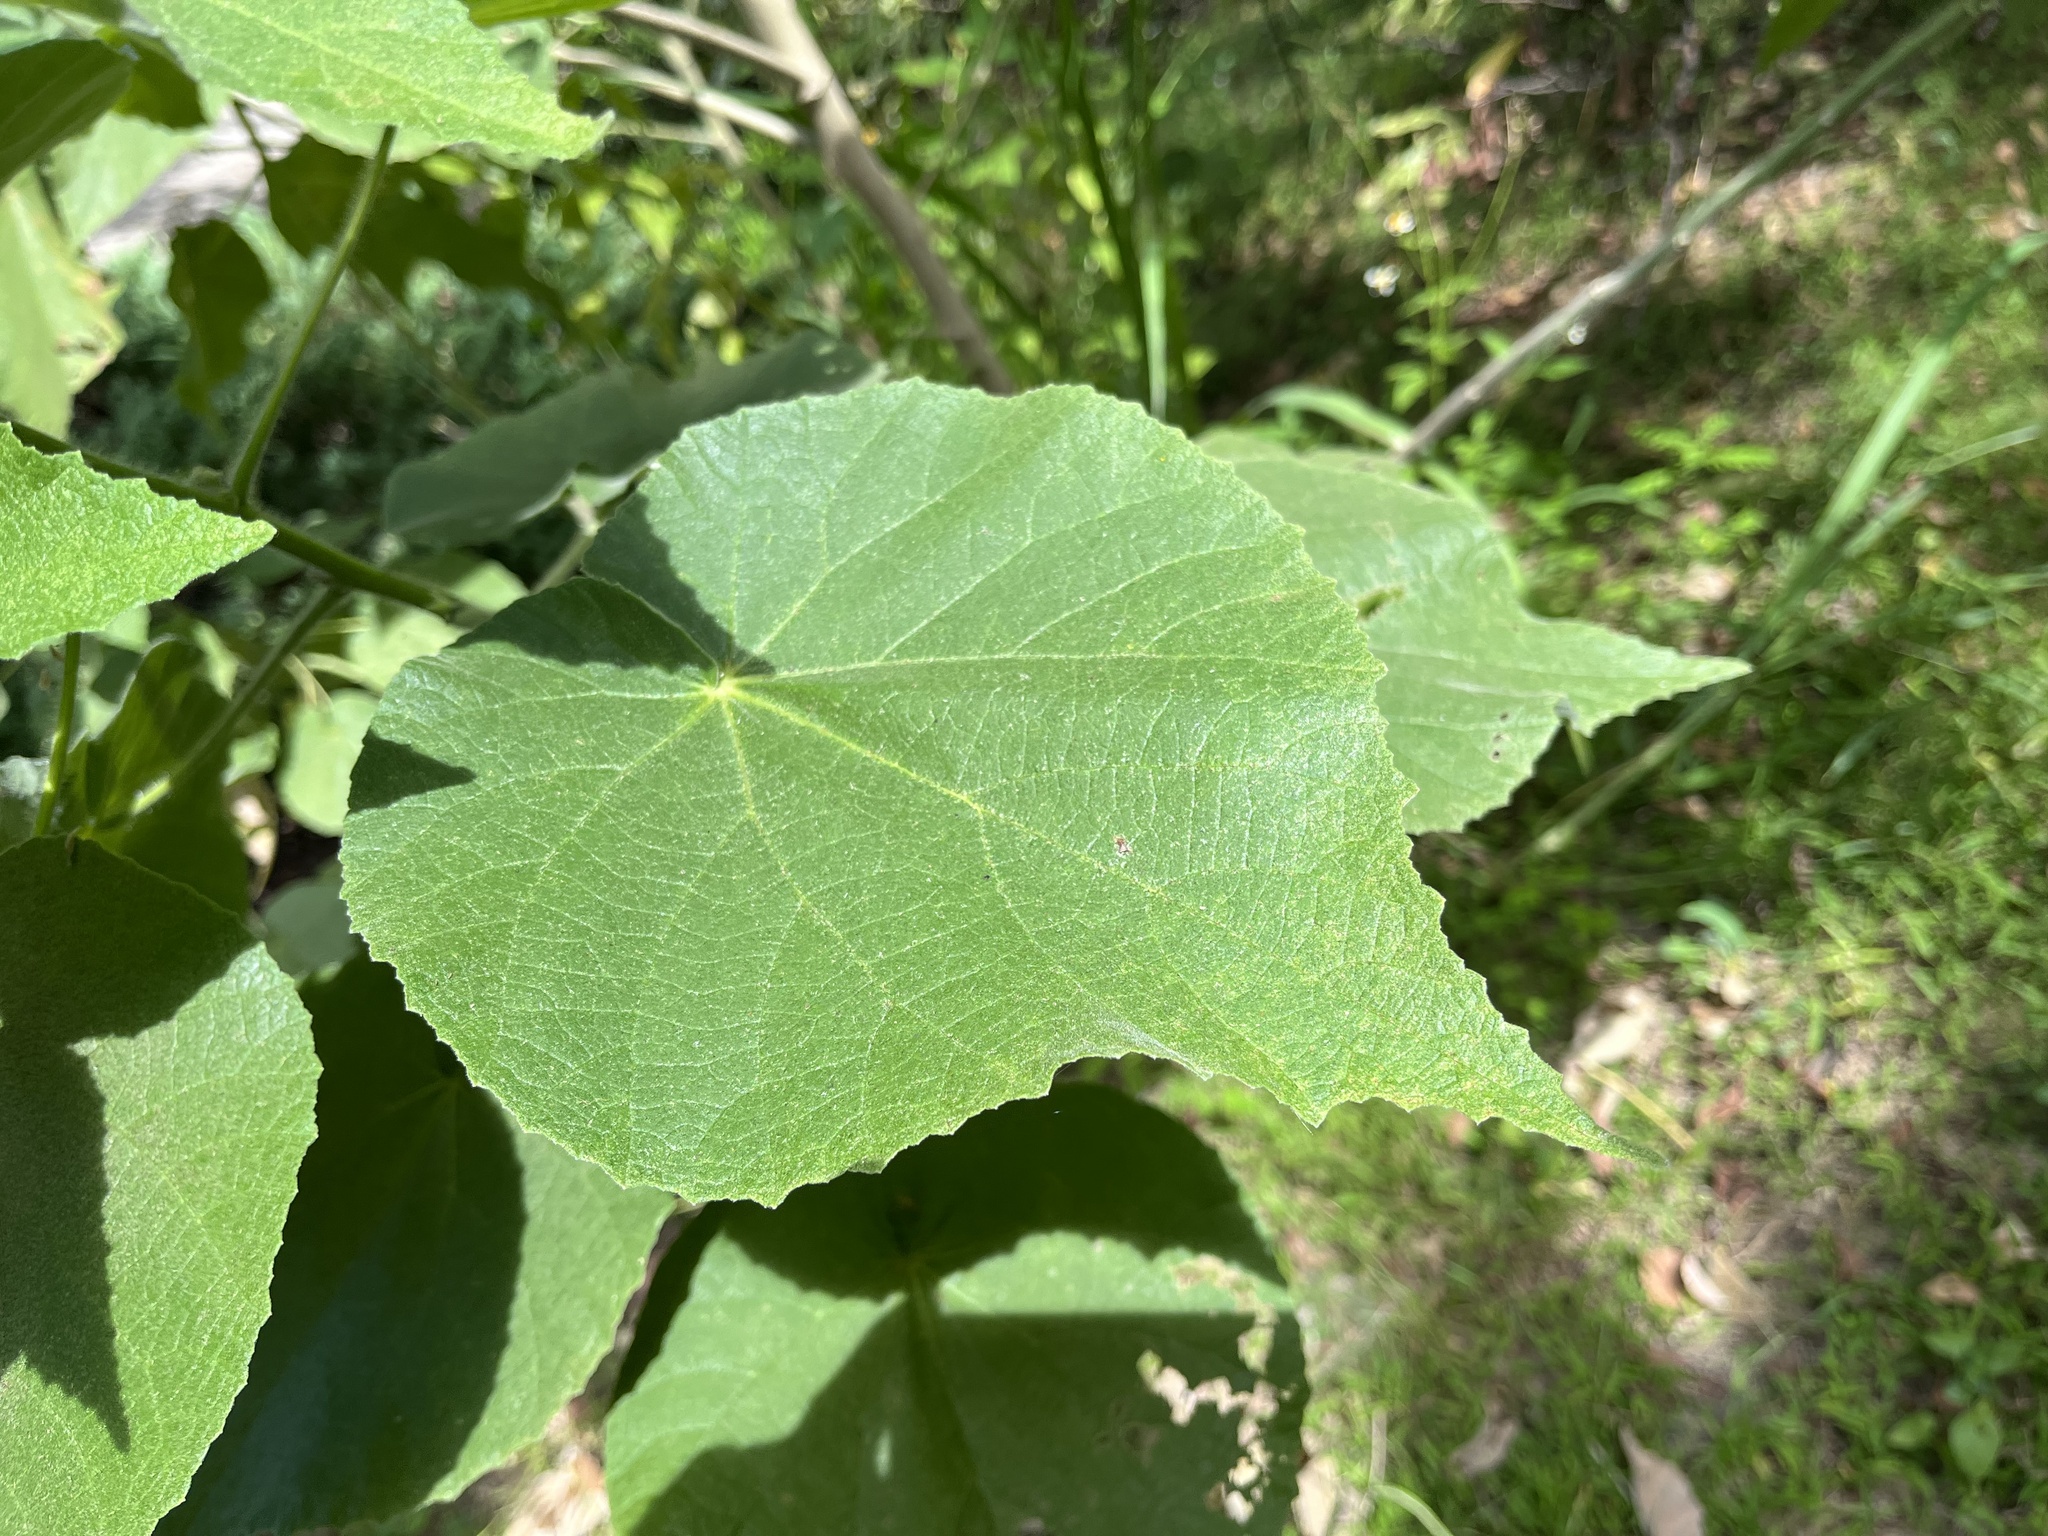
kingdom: Plantae
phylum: Tracheophyta
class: Magnoliopsida
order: Malvales
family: Malvaceae
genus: Abutilon
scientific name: Abutilon grandifolium
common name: Hairy abutilon
